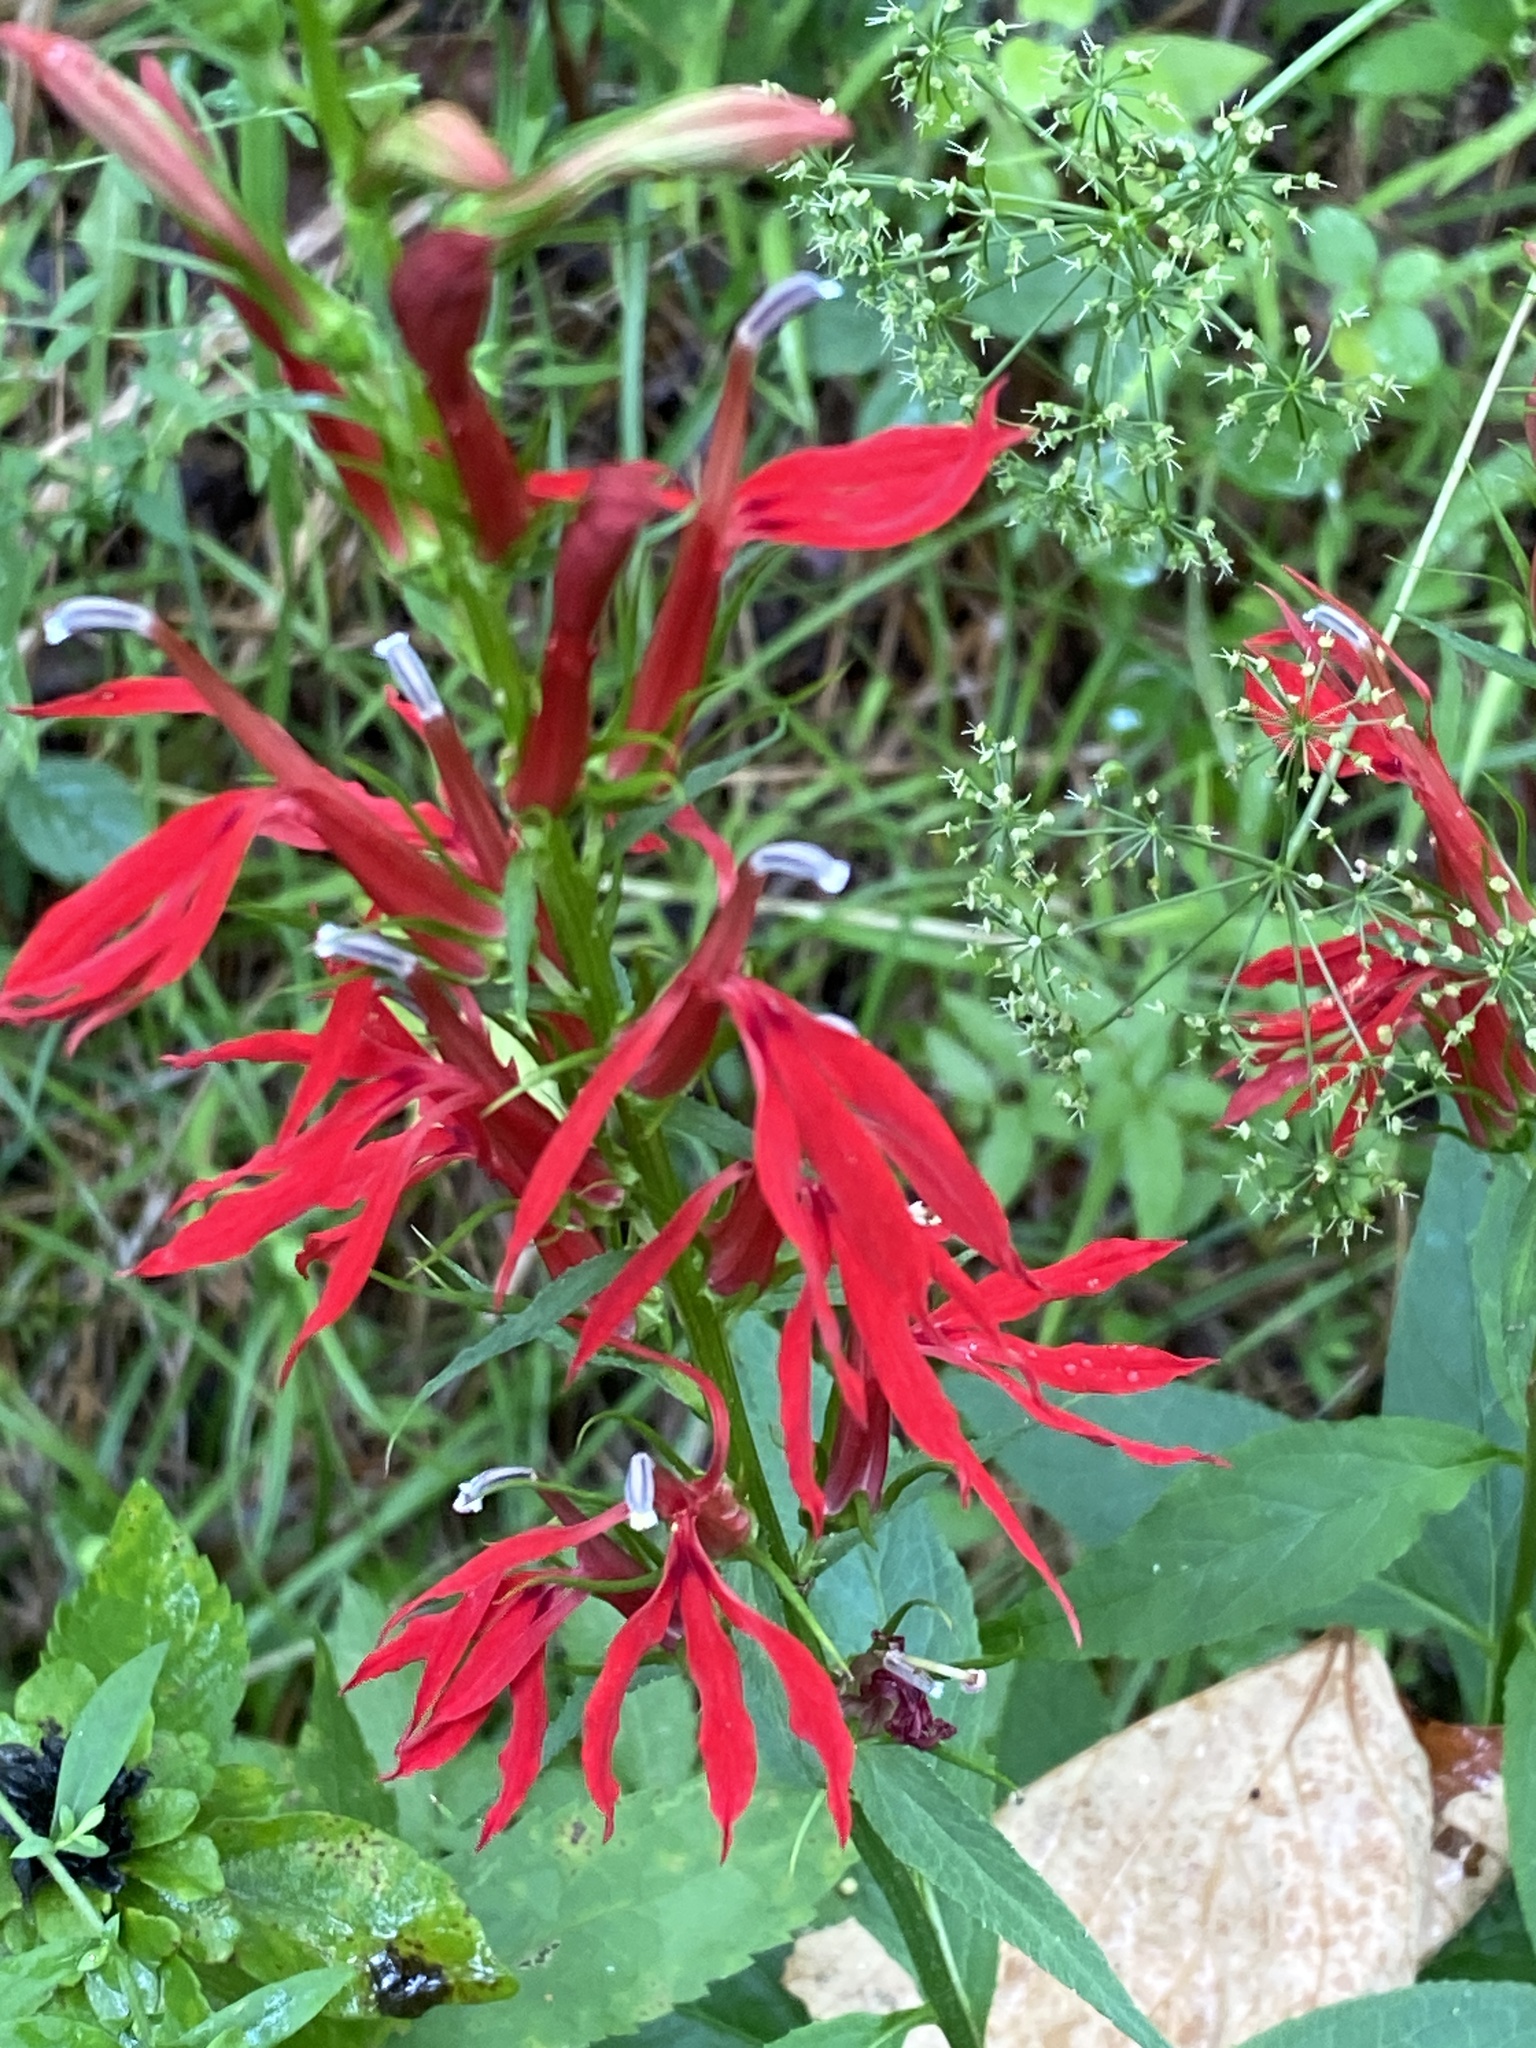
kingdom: Plantae
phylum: Tracheophyta
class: Magnoliopsida
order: Asterales
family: Campanulaceae
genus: Lobelia
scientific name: Lobelia cardinalis
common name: Cardinal flower
